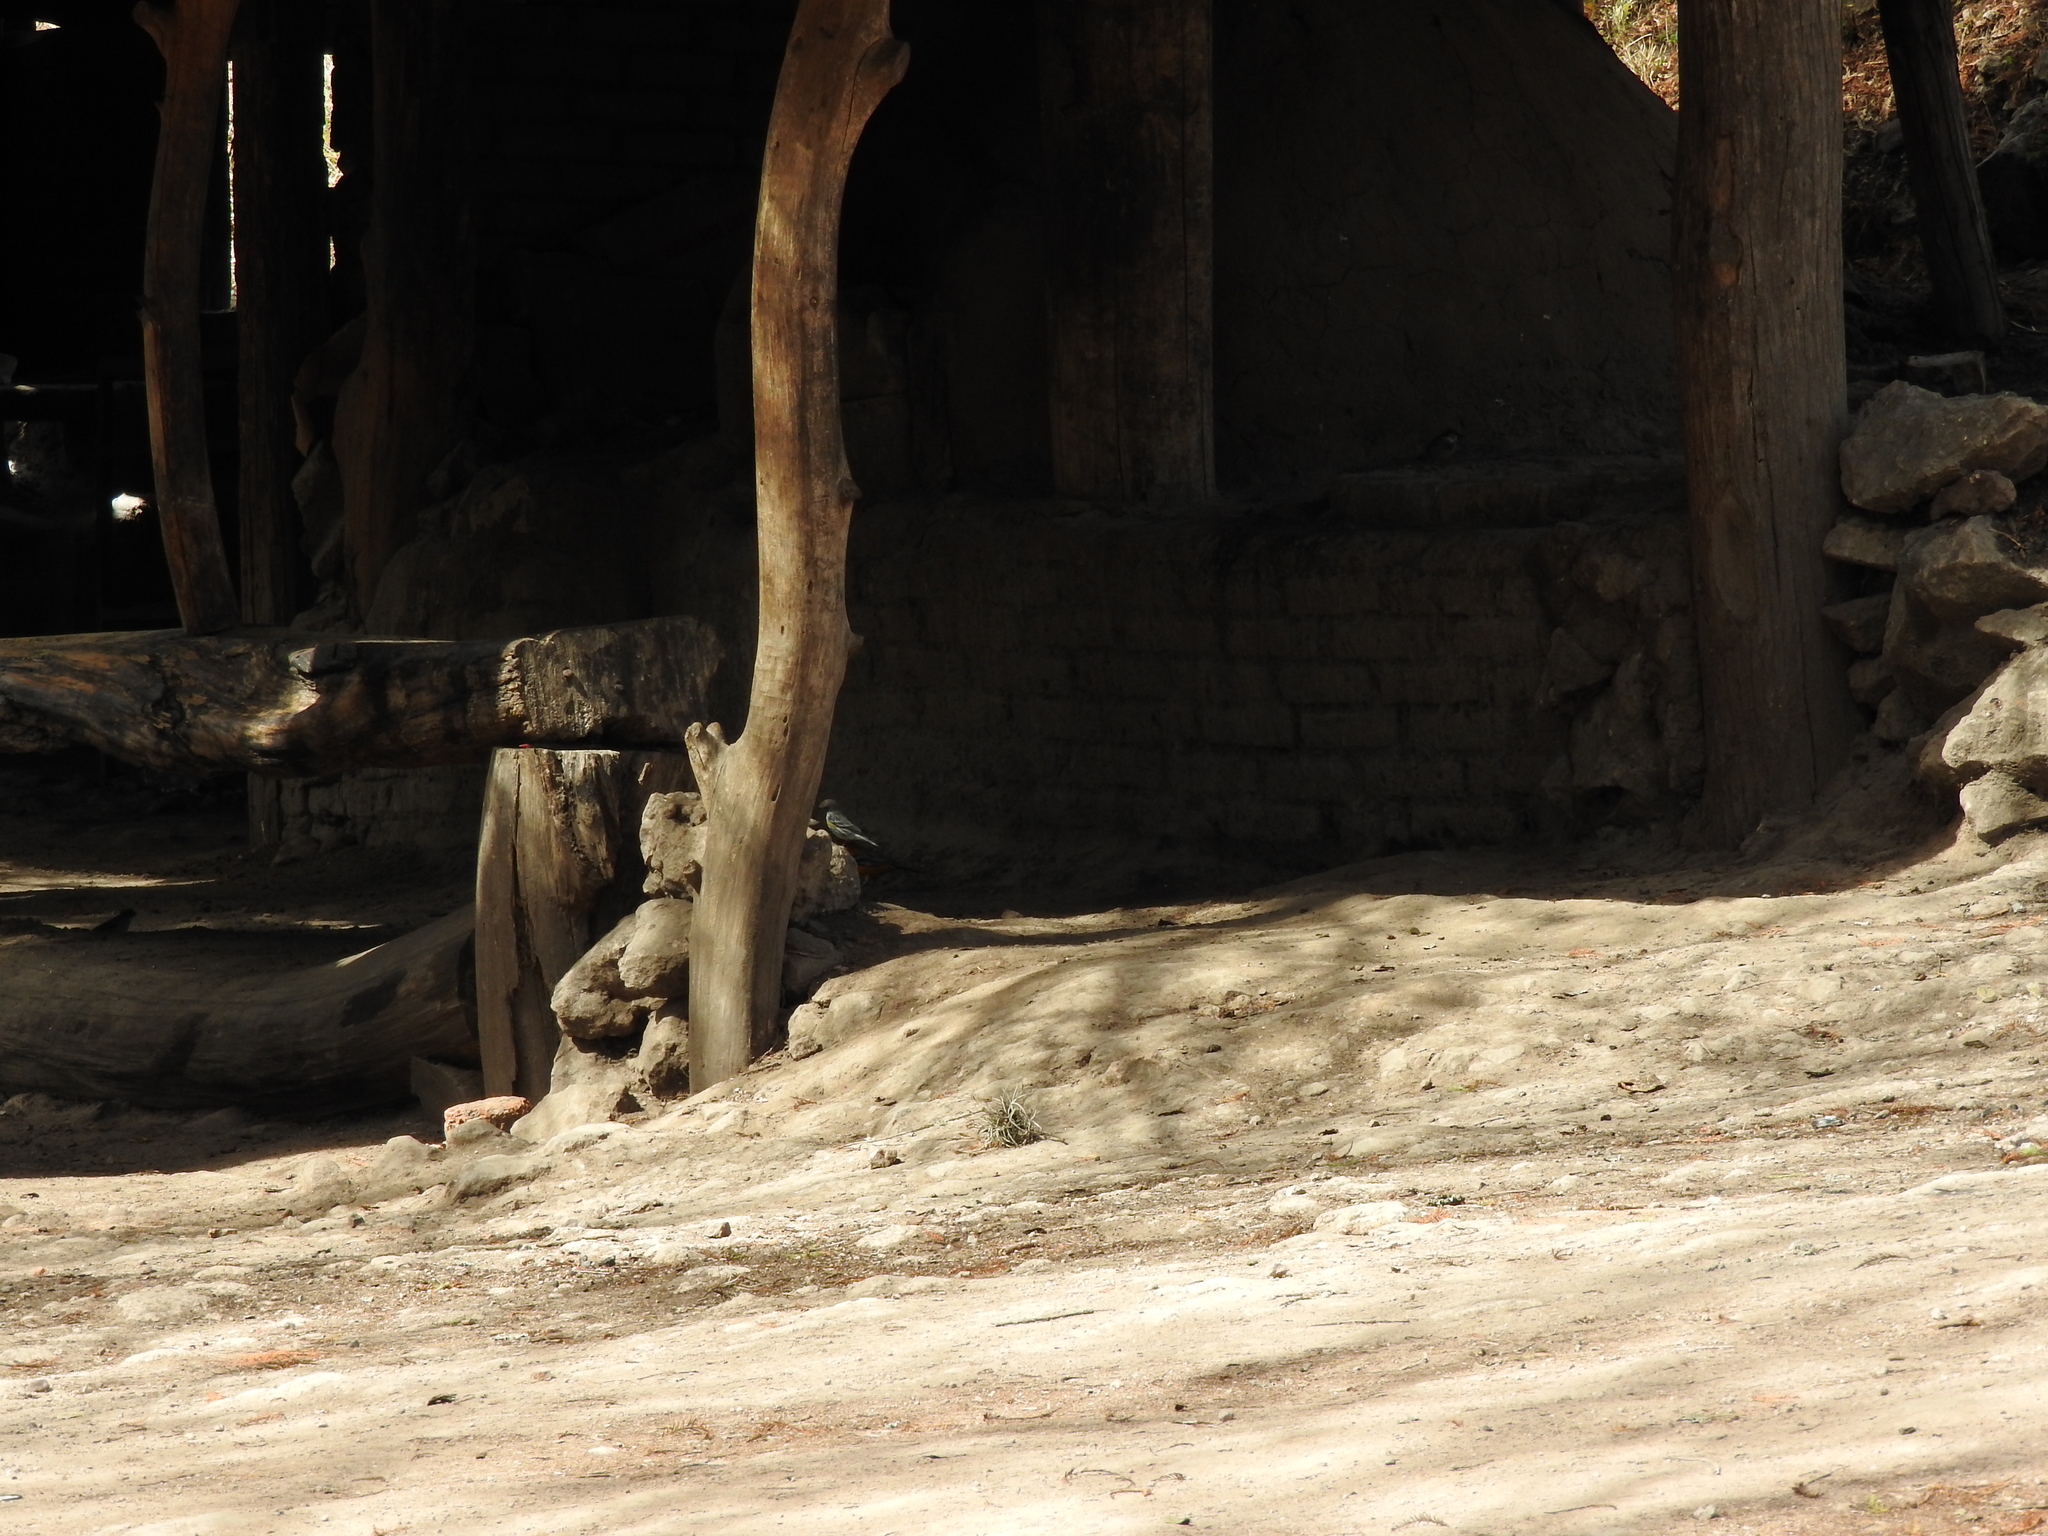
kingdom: Animalia
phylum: Chordata
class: Aves
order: Passeriformes
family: Parulidae
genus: Setophaga
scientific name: Setophaga coronata
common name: Myrtle warbler
